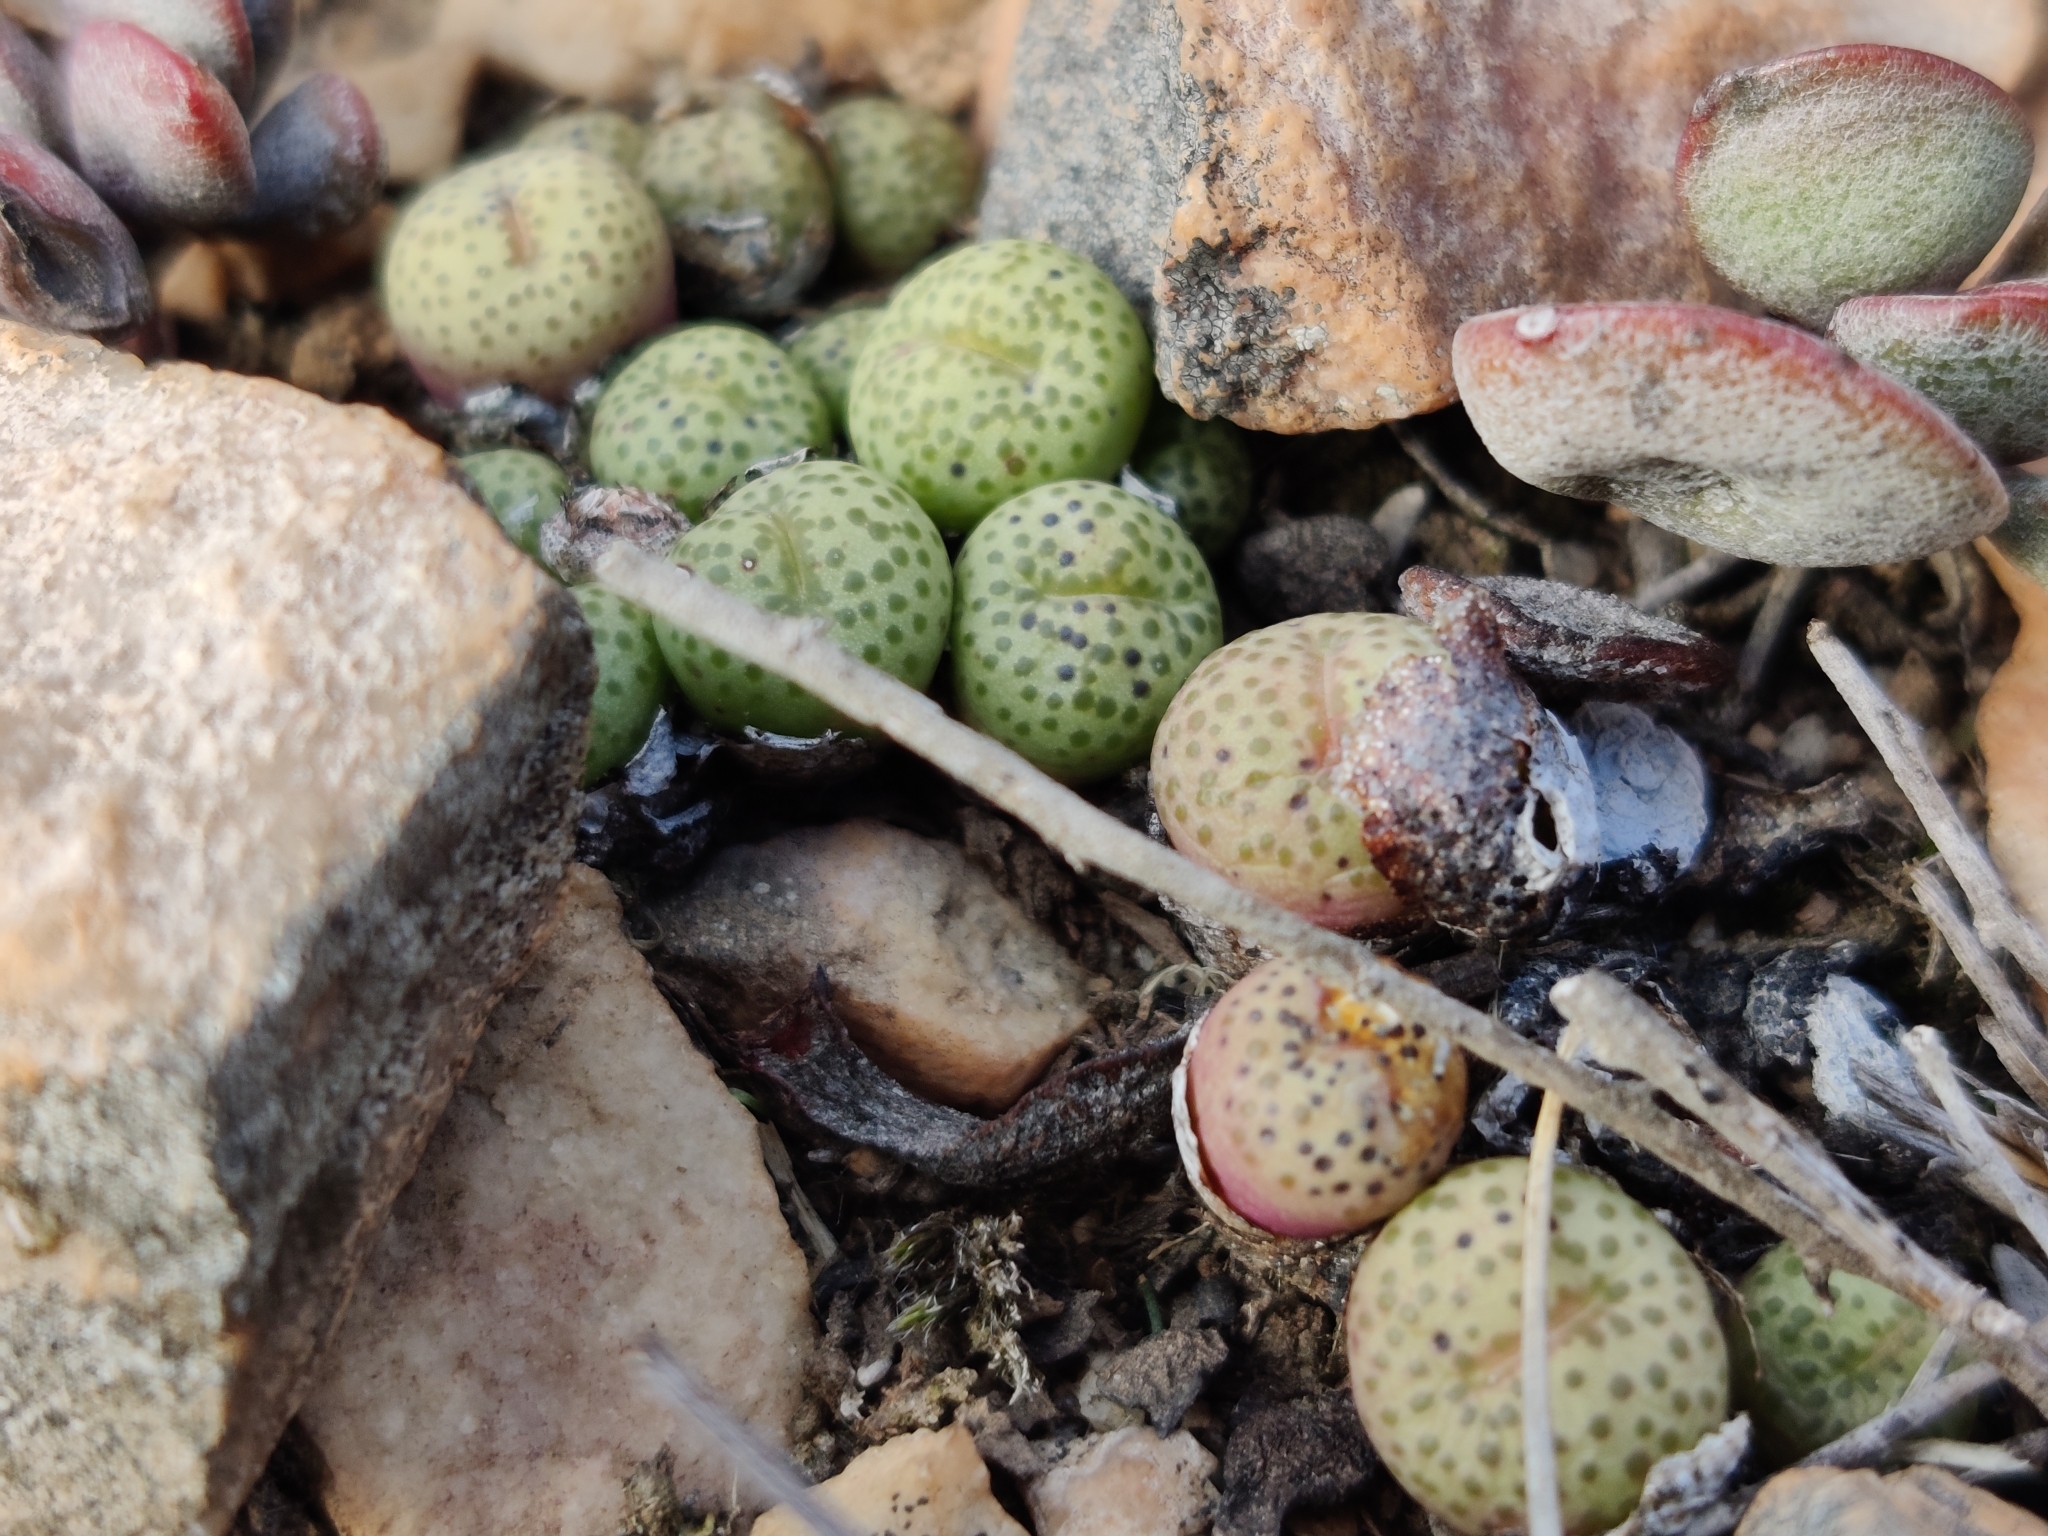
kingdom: Plantae
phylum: Tracheophyta
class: Magnoliopsida
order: Caryophyllales
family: Aizoaceae
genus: Conophytum
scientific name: Conophytum truncatum
